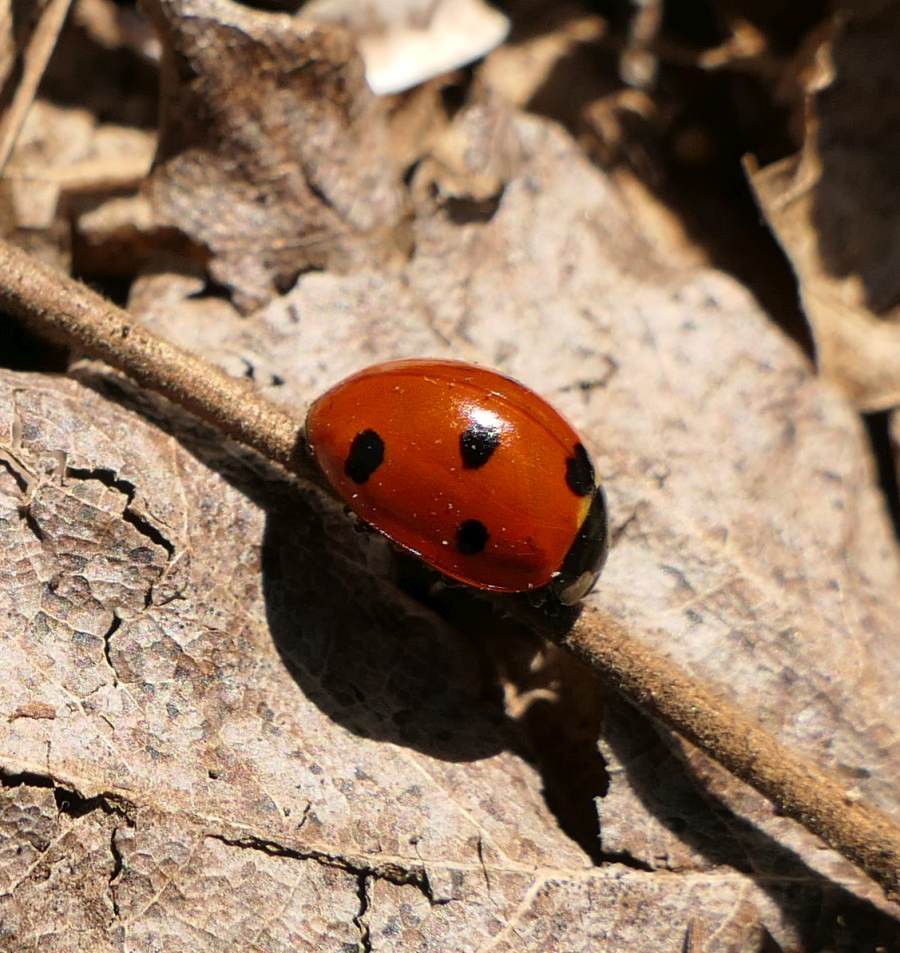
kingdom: Animalia
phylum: Arthropoda
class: Insecta
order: Coleoptera
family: Coccinellidae
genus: Coccinella
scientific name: Coccinella septempunctata
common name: Sevenspotted lady beetle
